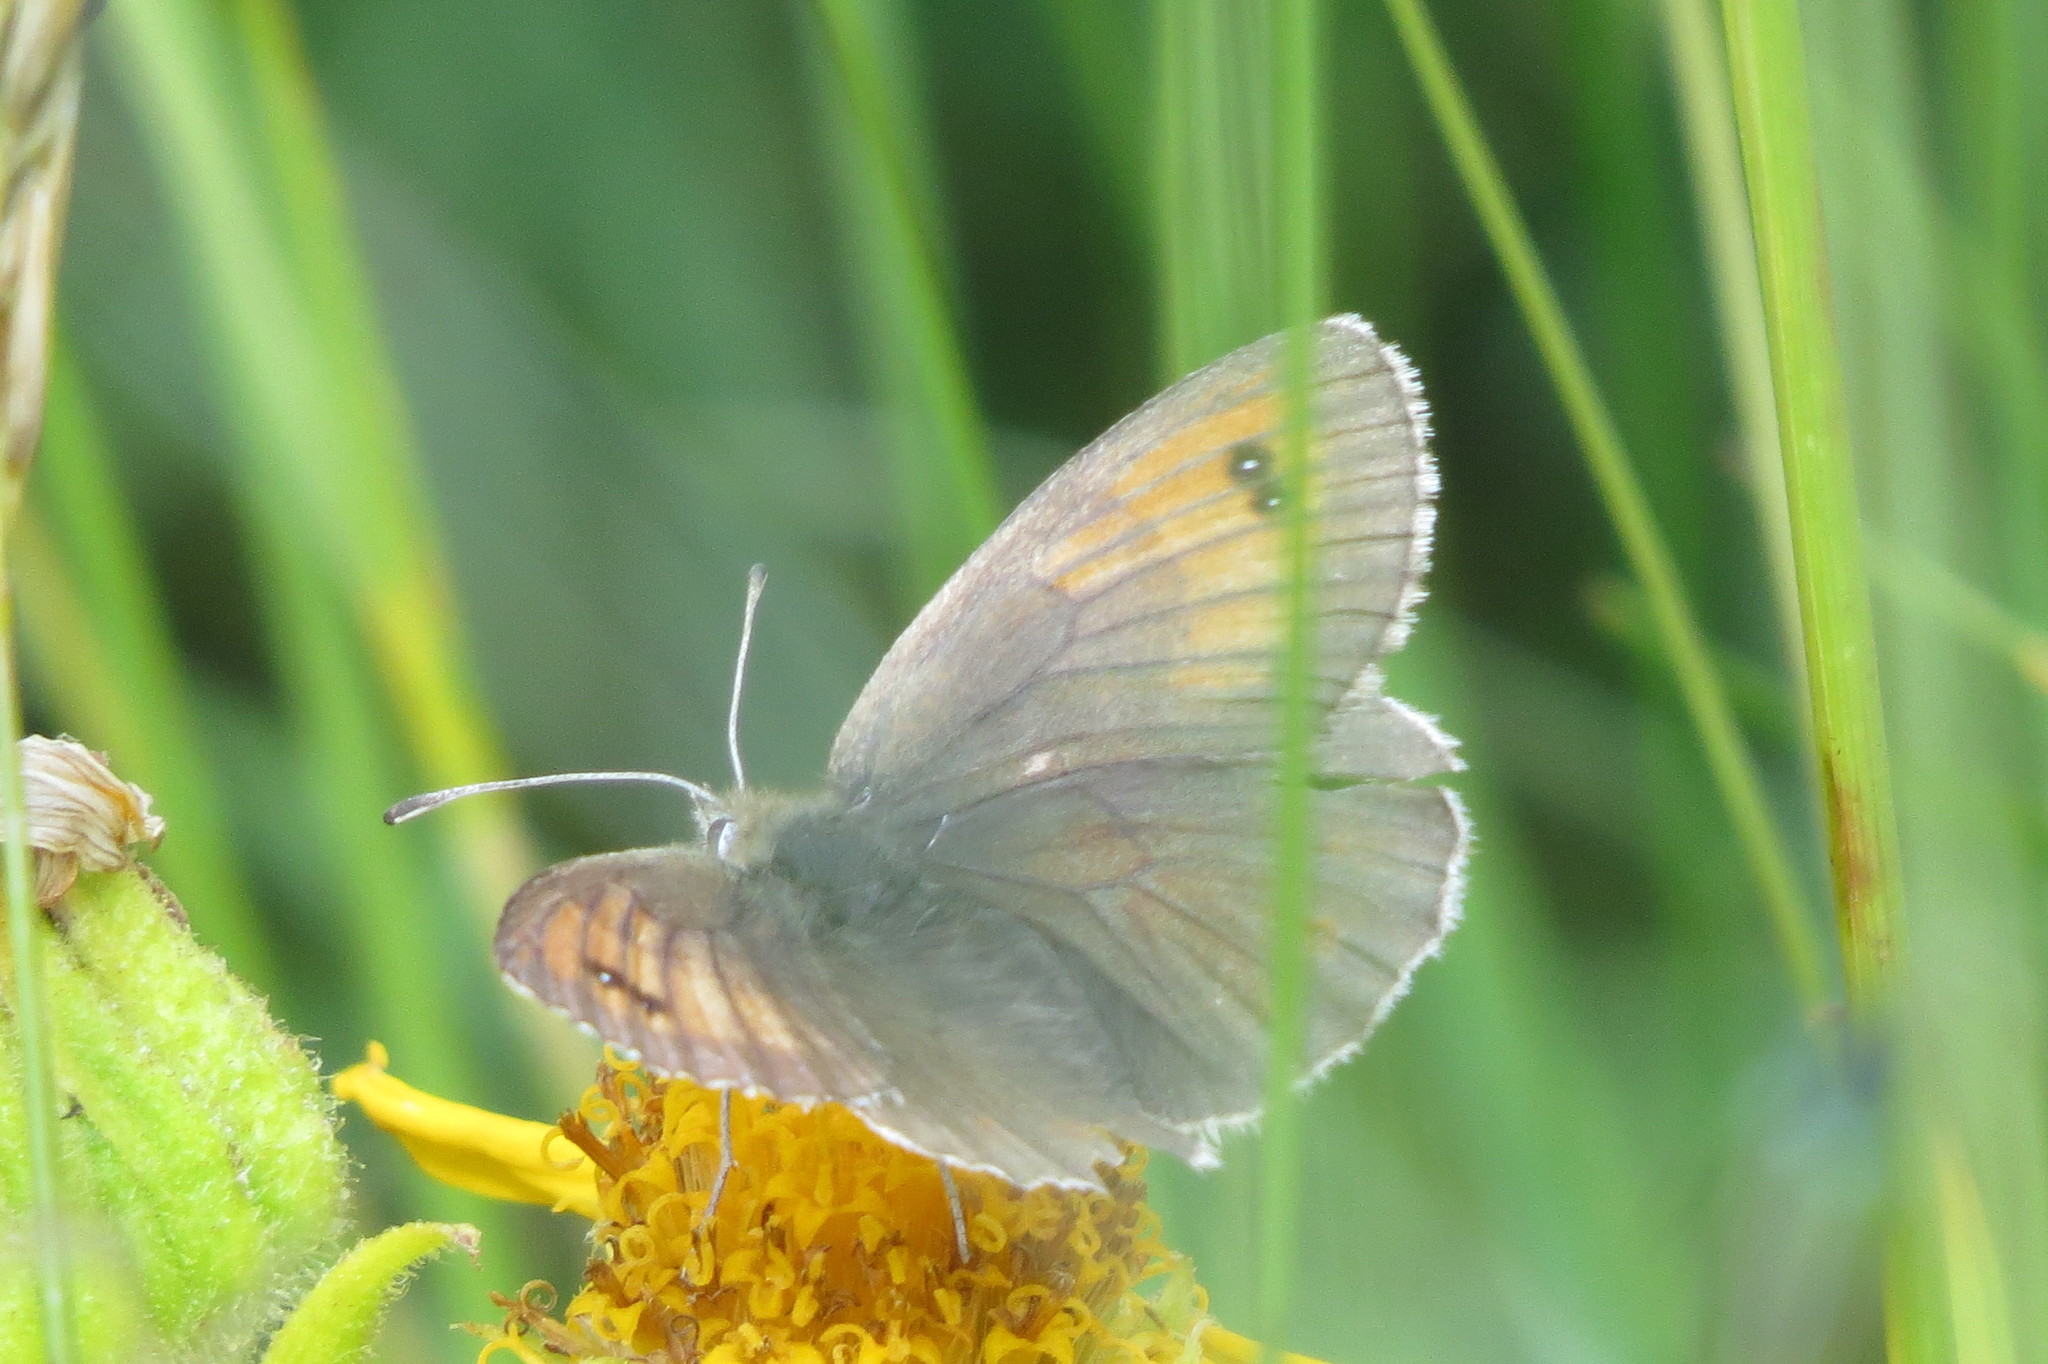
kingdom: Animalia
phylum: Arthropoda
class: Insecta
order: Lepidoptera
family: Nymphalidae
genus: Erebia
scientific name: Erebia tyndarus
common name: Swiss brassy ringlet
